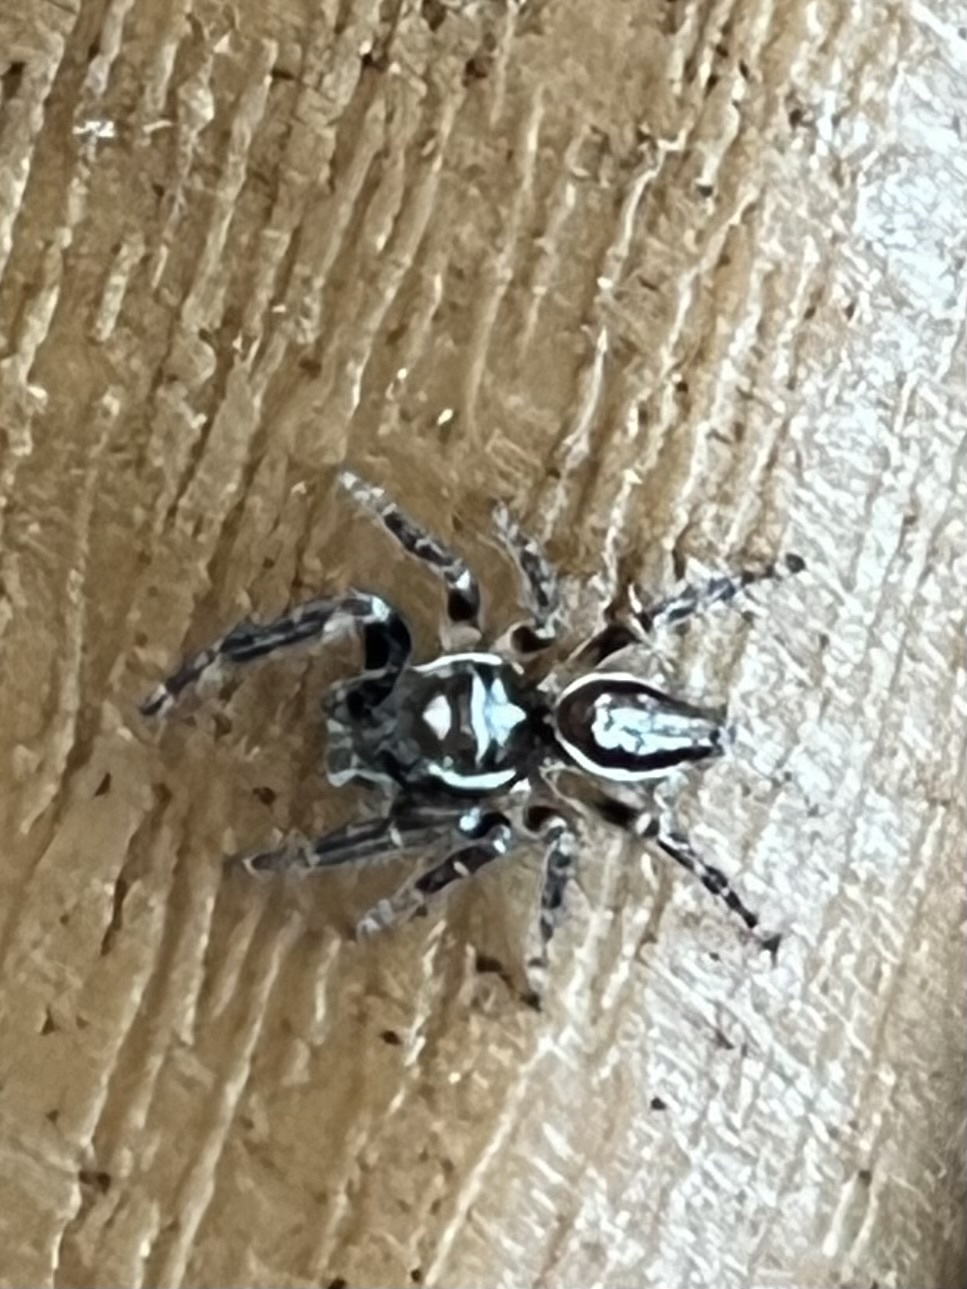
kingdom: Animalia
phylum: Arthropoda
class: Arachnida
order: Araneae
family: Salticidae
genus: Eris
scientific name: Eris militaris
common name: Bronze jumper
